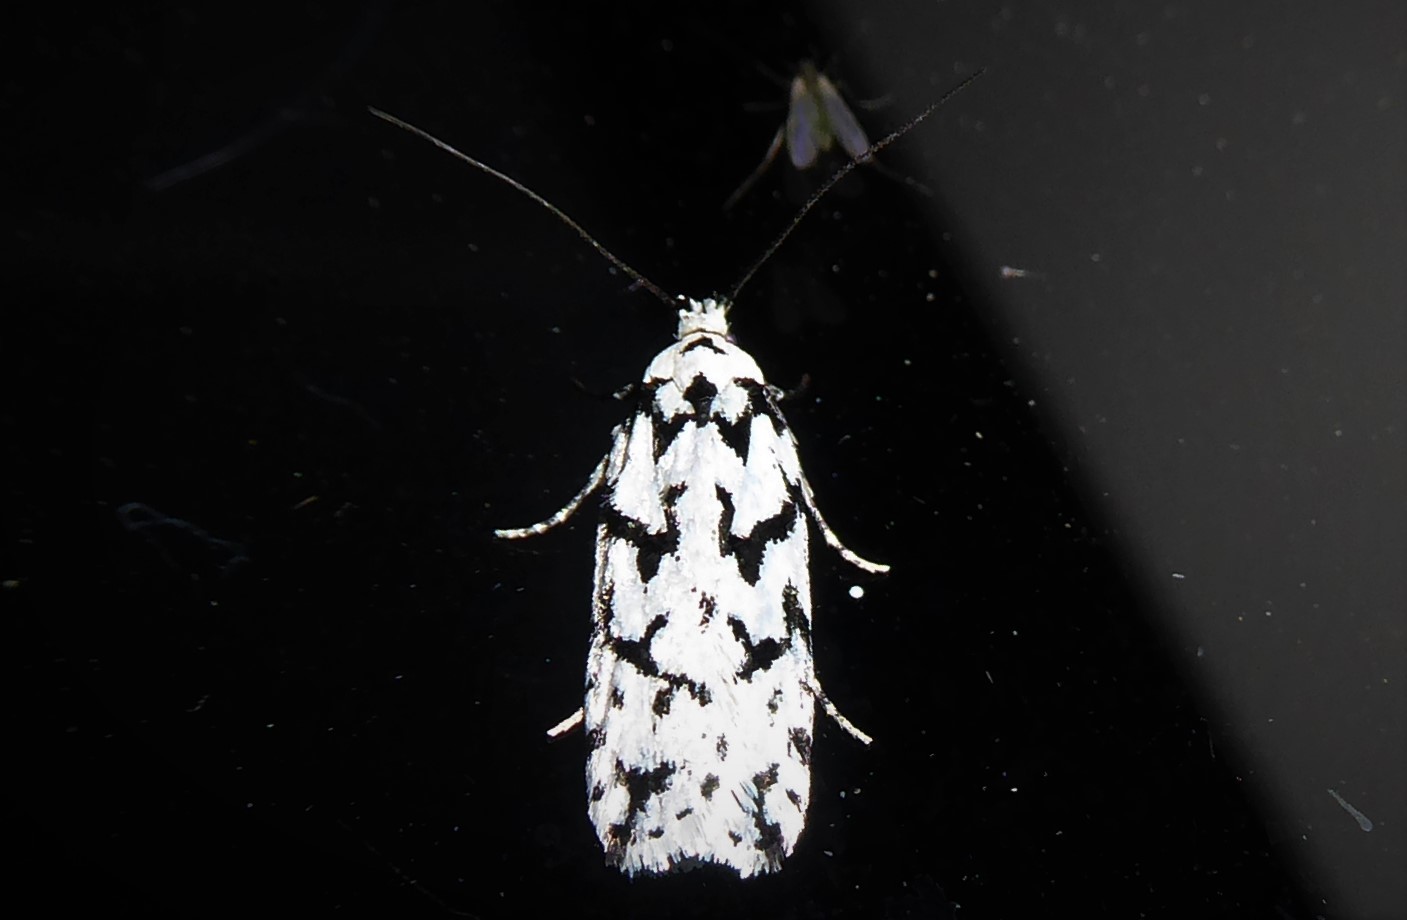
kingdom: Animalia
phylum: Arthropoda
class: Insecta
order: Lepidoptera
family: Oecophoridae
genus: Izatha
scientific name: Izatha katadiktya
